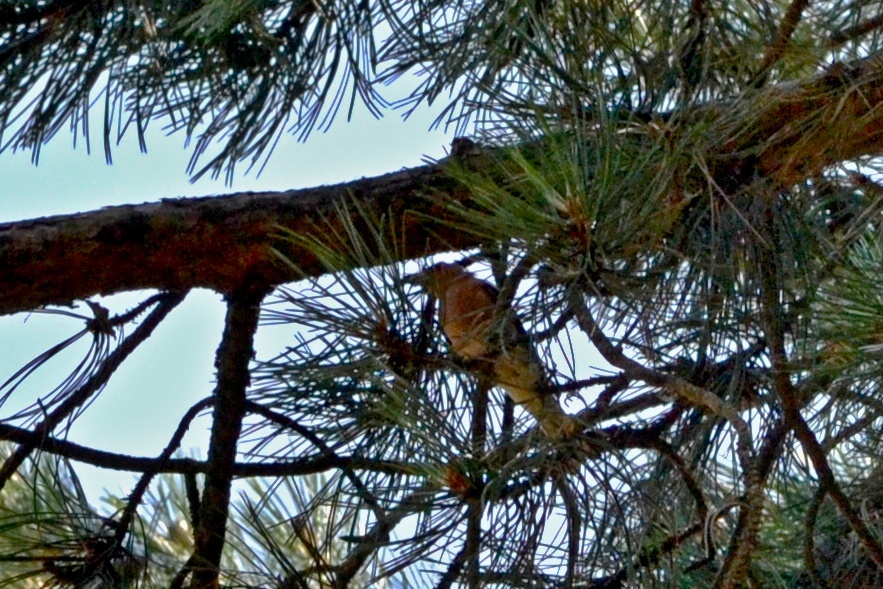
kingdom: Animalia
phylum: Chordata
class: Aves
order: Passeriformes
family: Fringillidae
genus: Loxia
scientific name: Loxia curvirostra
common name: Red crossbill
